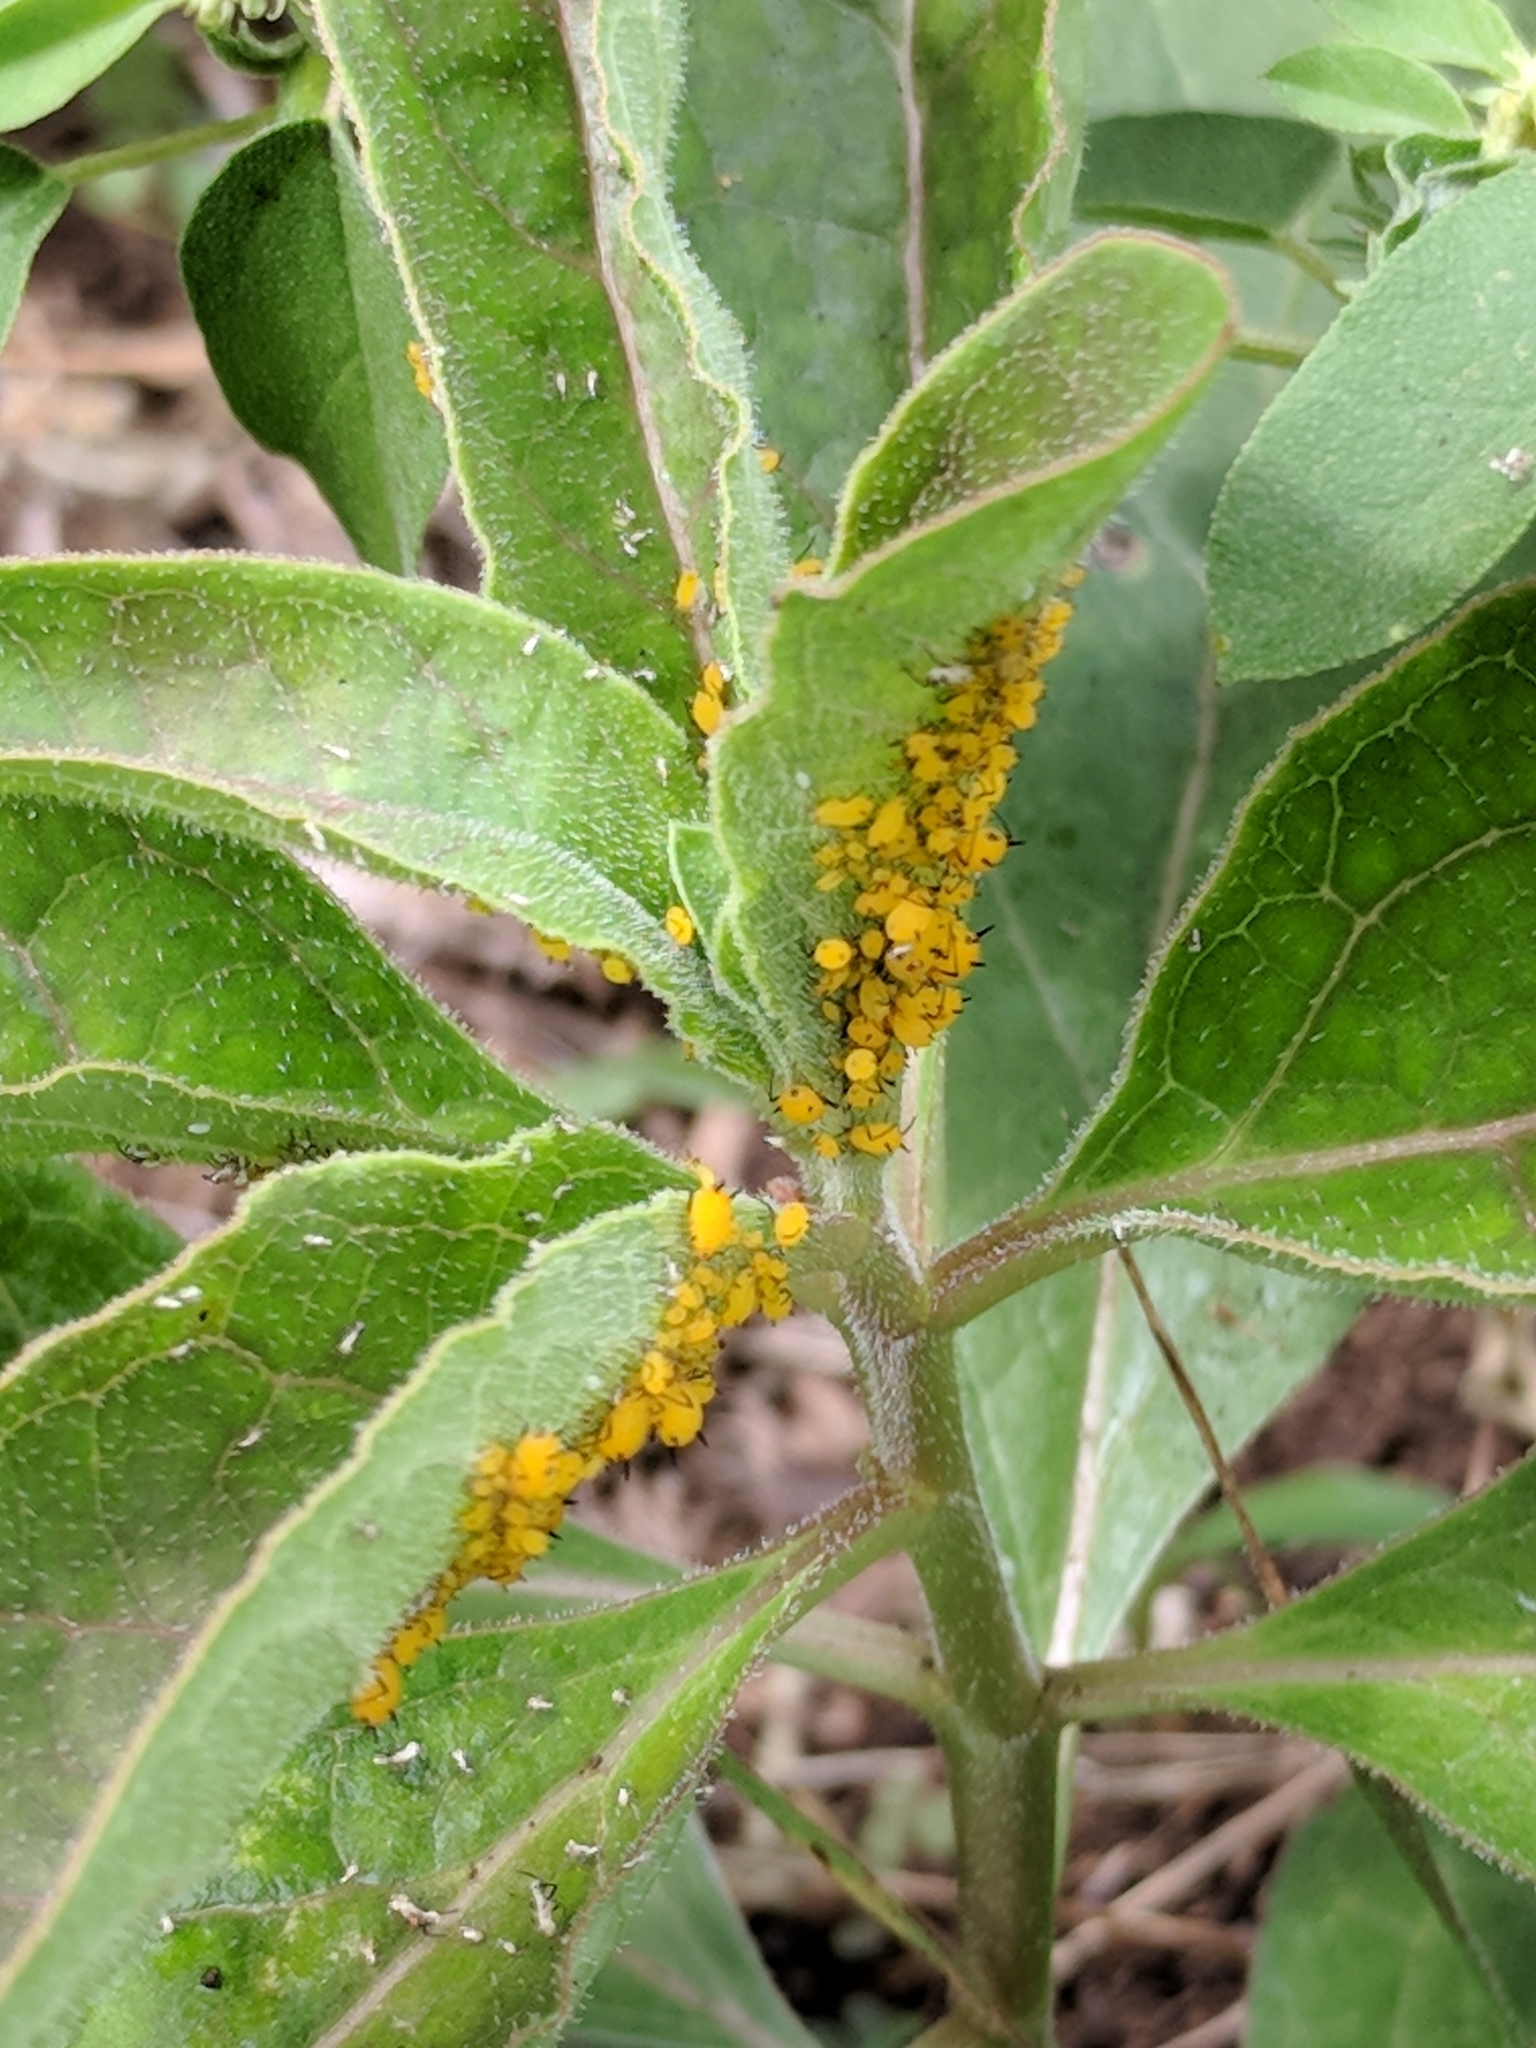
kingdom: Animalia
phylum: Arthropoda
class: Insecta
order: Hemiptera
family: Aphididae
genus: Aphis
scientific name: Aphis nerii
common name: Oleander aphid
